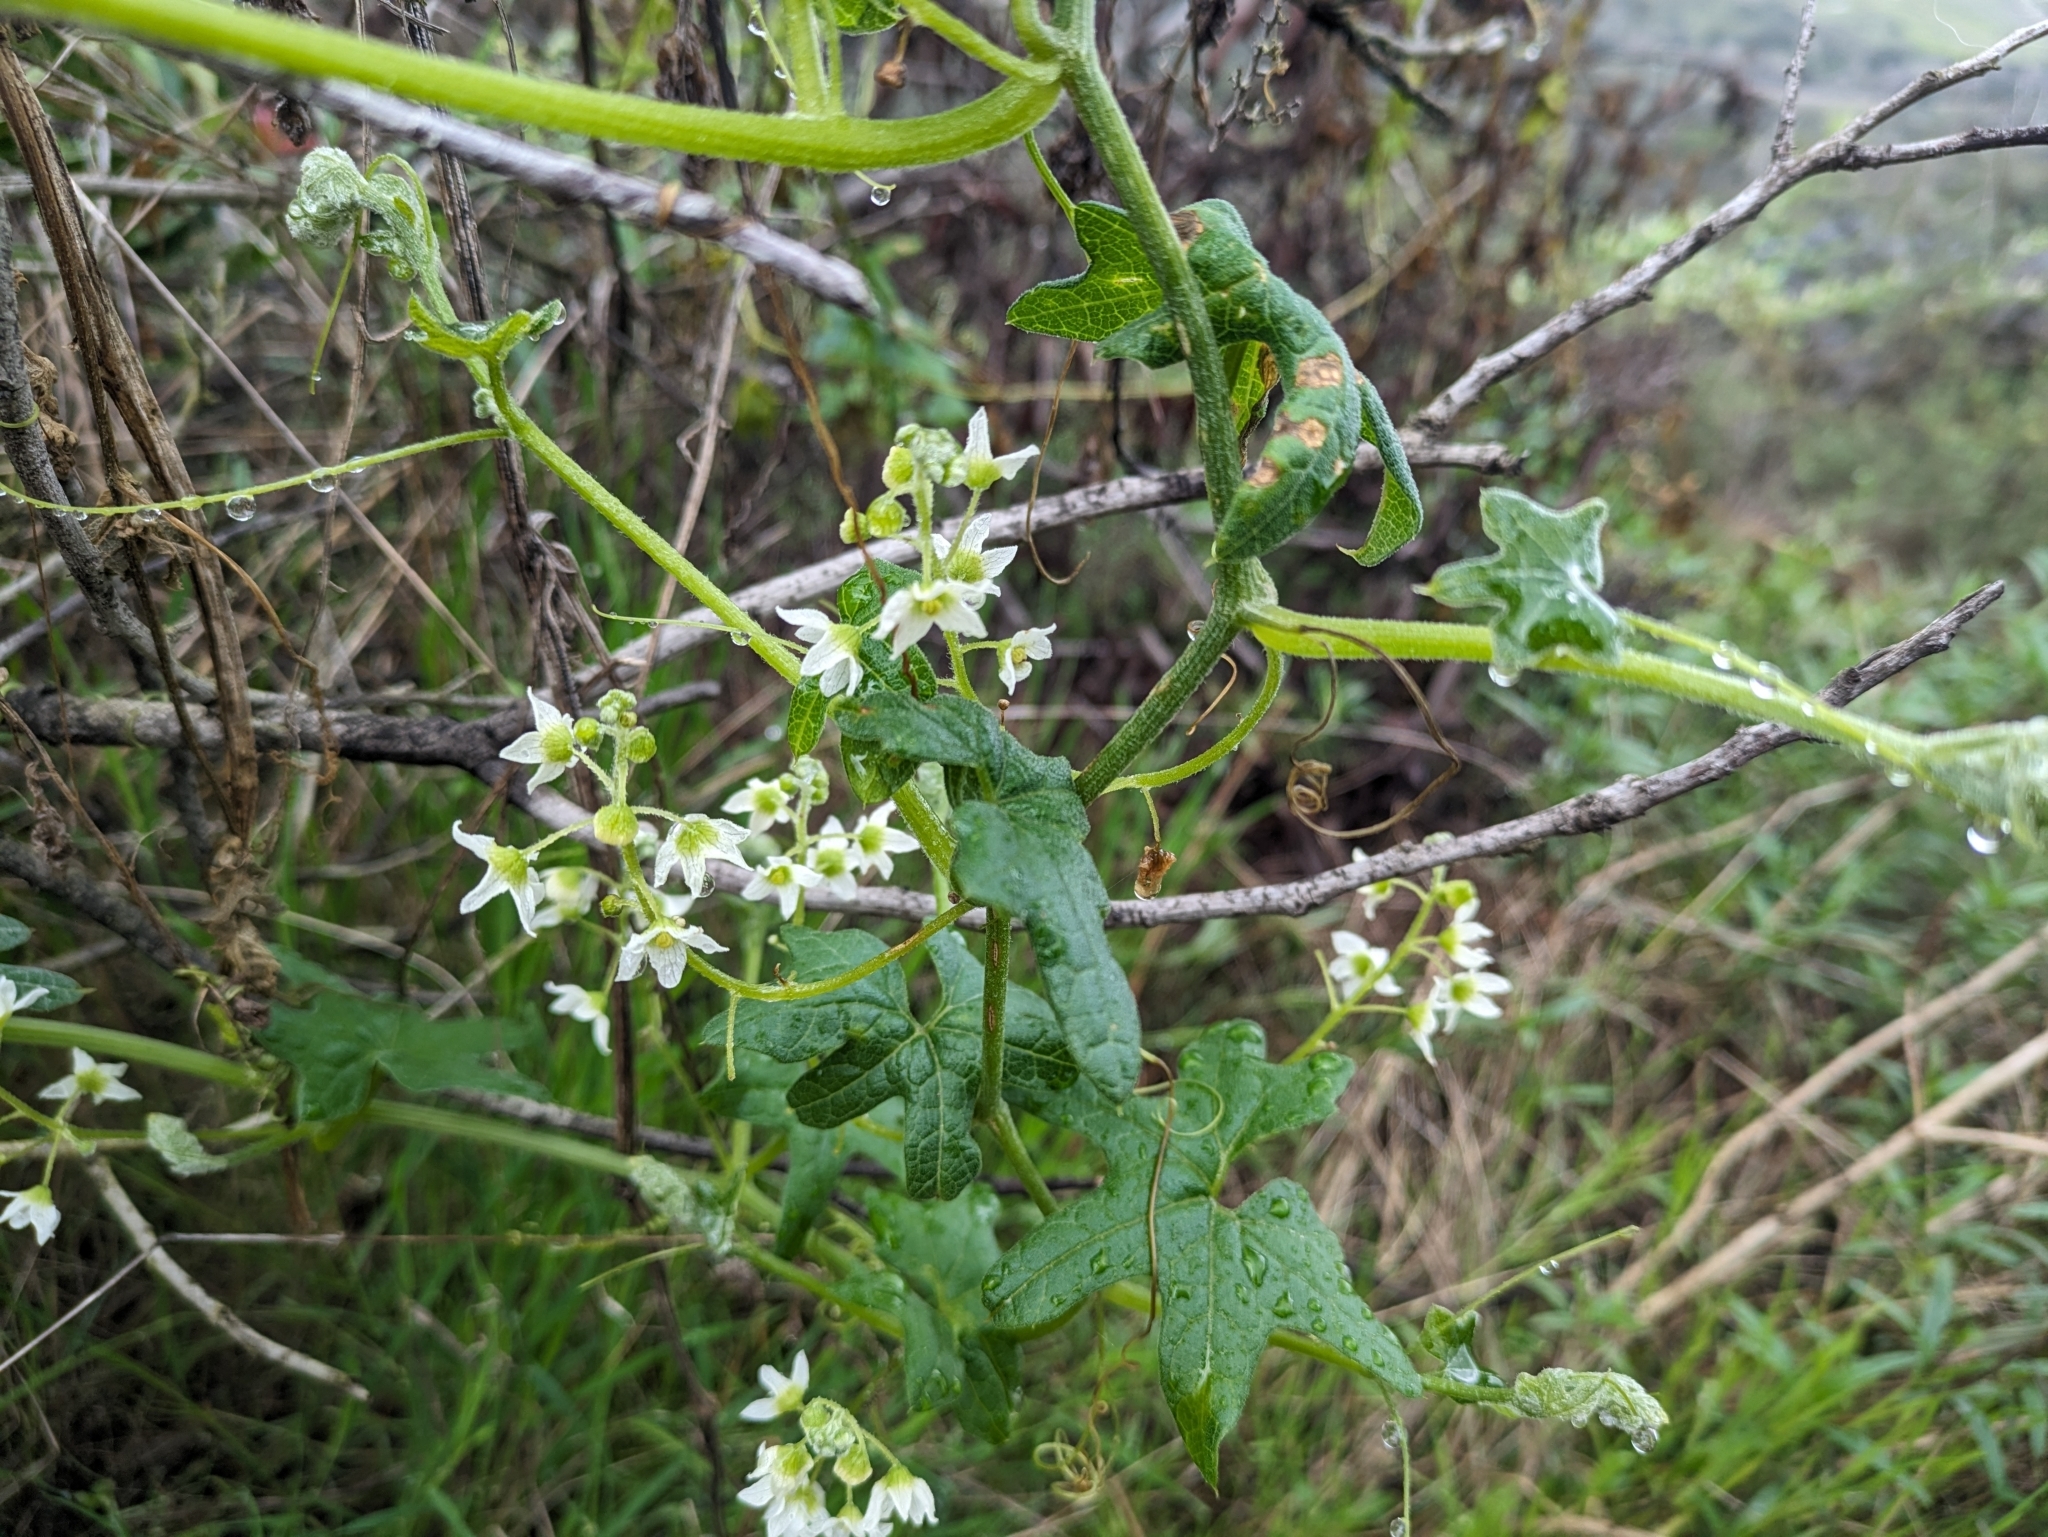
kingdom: Plantae
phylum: Tracheophyta
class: Magnoliopsida
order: Cucurbitales
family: Cucurbitaceae
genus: Marah
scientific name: Marah macrocarpa
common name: Cucamonga manroot
